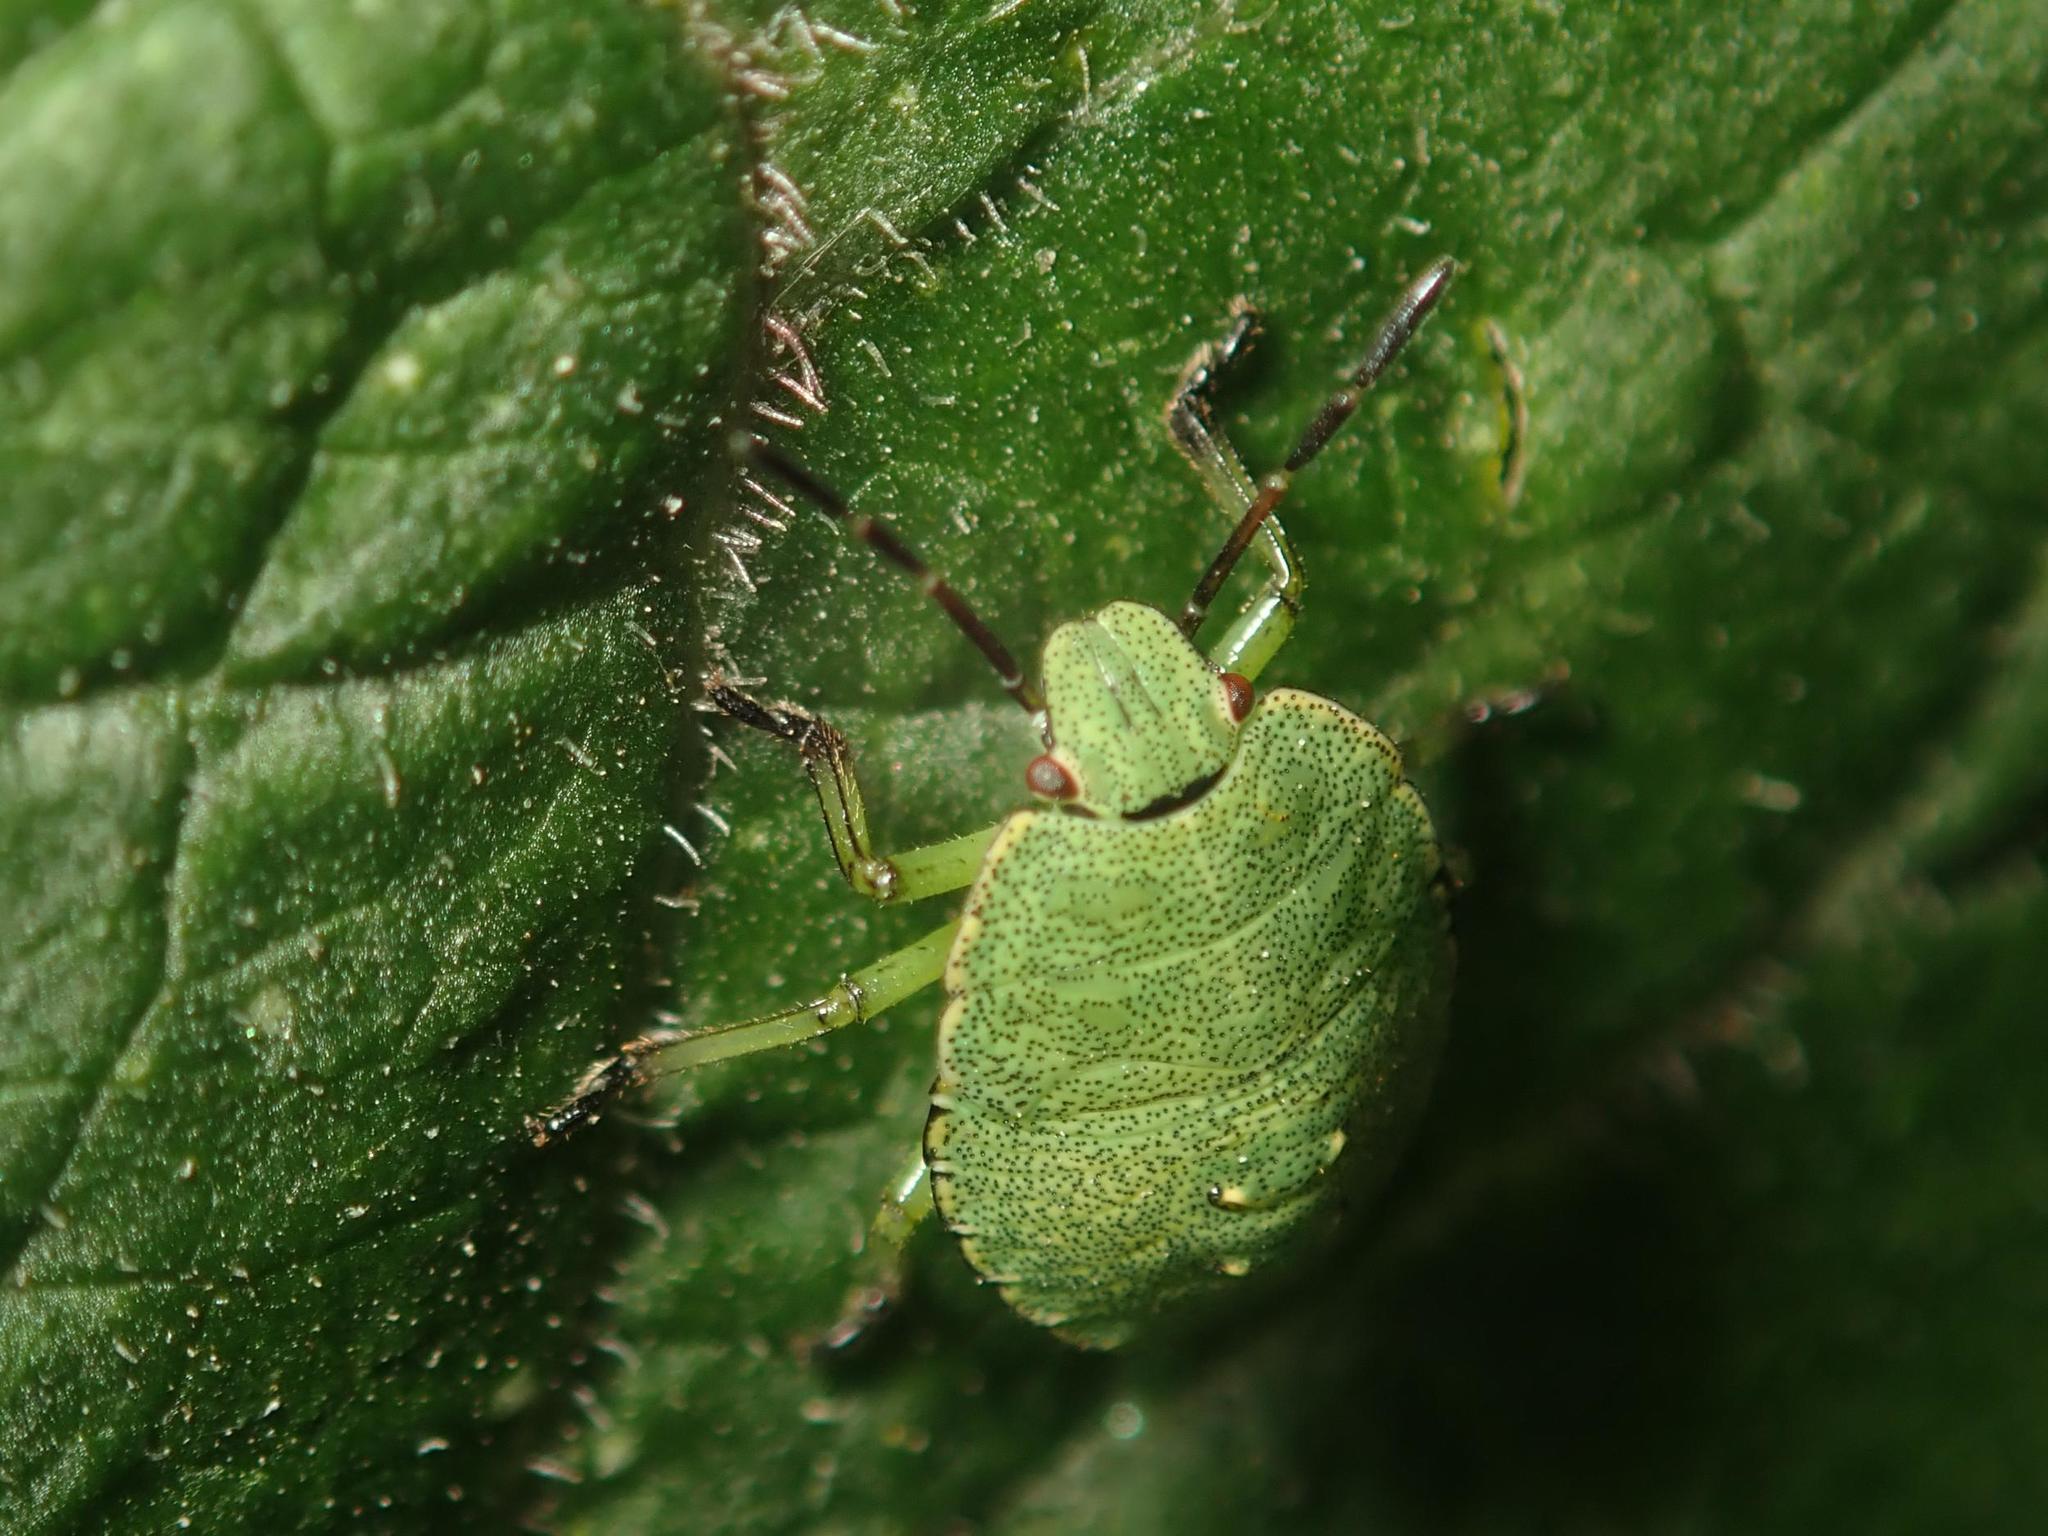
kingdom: Animalia
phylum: Arthropoda
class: Insecta
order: Hemiptera
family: Pentatomidae
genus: Palomena
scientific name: Palomena prasina
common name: Green shieldbug
